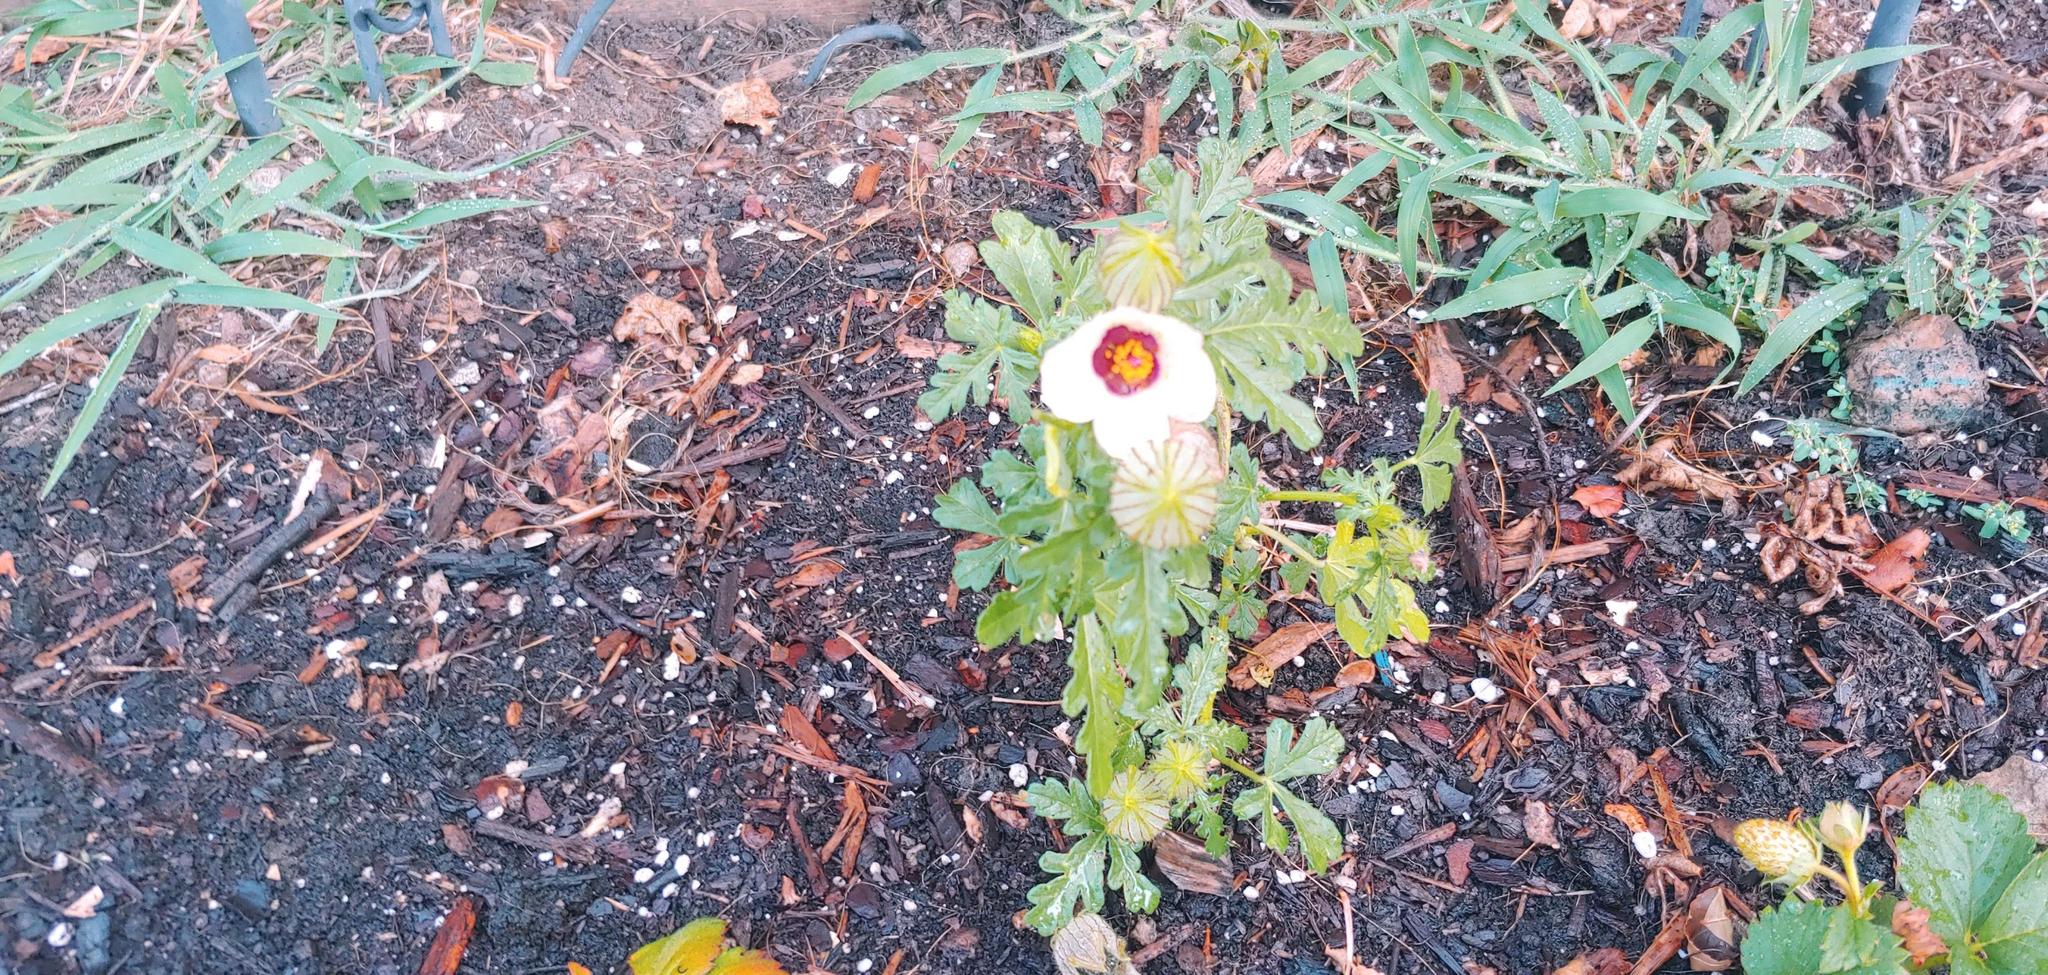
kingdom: Plantae
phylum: Tracheophyta
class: Magnoliopsida
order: Malvales
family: Malvaceae
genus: Hibiscus
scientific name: Hibiscus trionum
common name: Bladder ketmia
